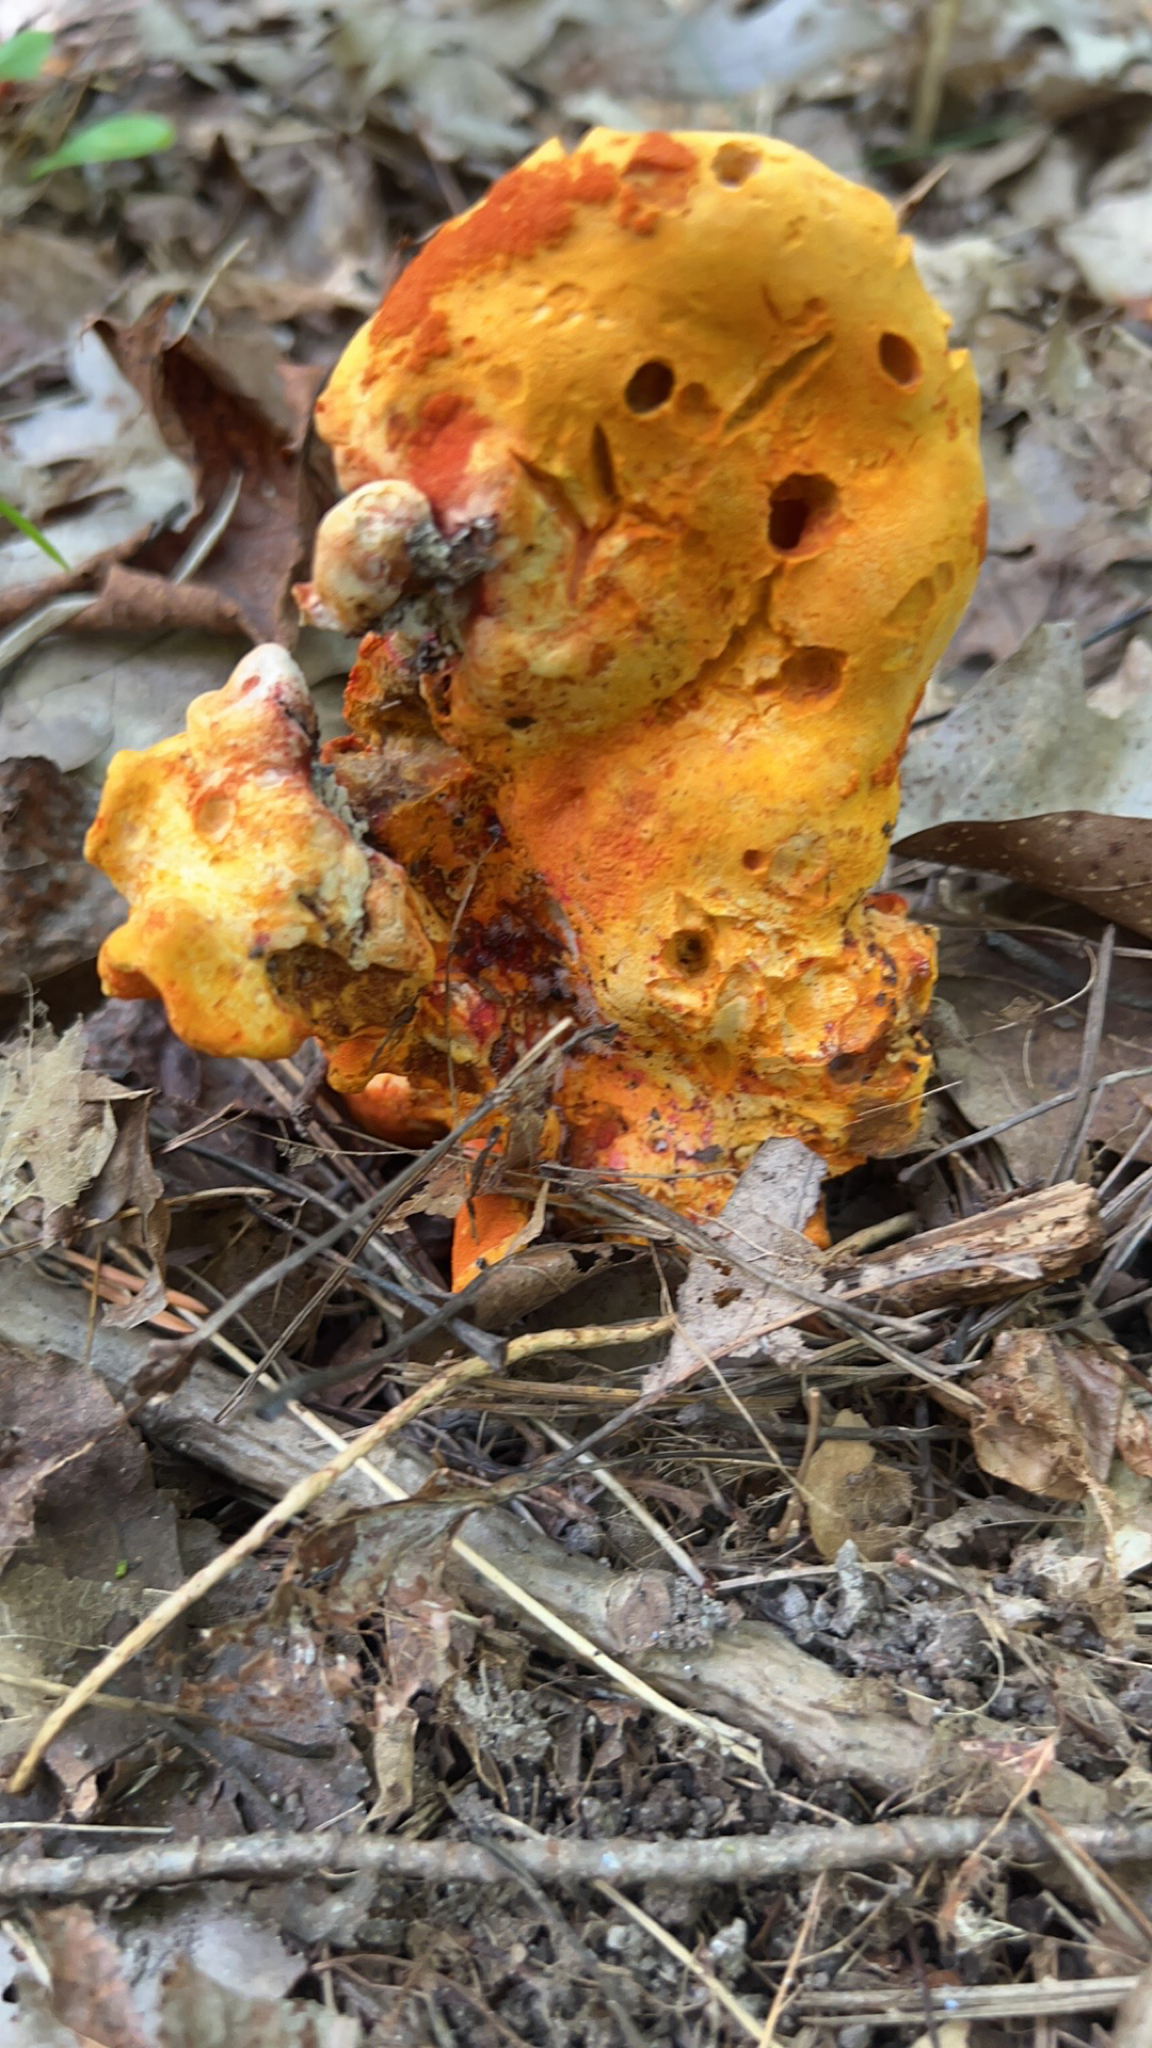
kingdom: Fungi
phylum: Ascomycota
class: Sordariomycetes
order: Hypocreales
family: Hypocreaceae
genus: Hypomyces
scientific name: Hypomyces lactifluorum
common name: Lobster mushroom
